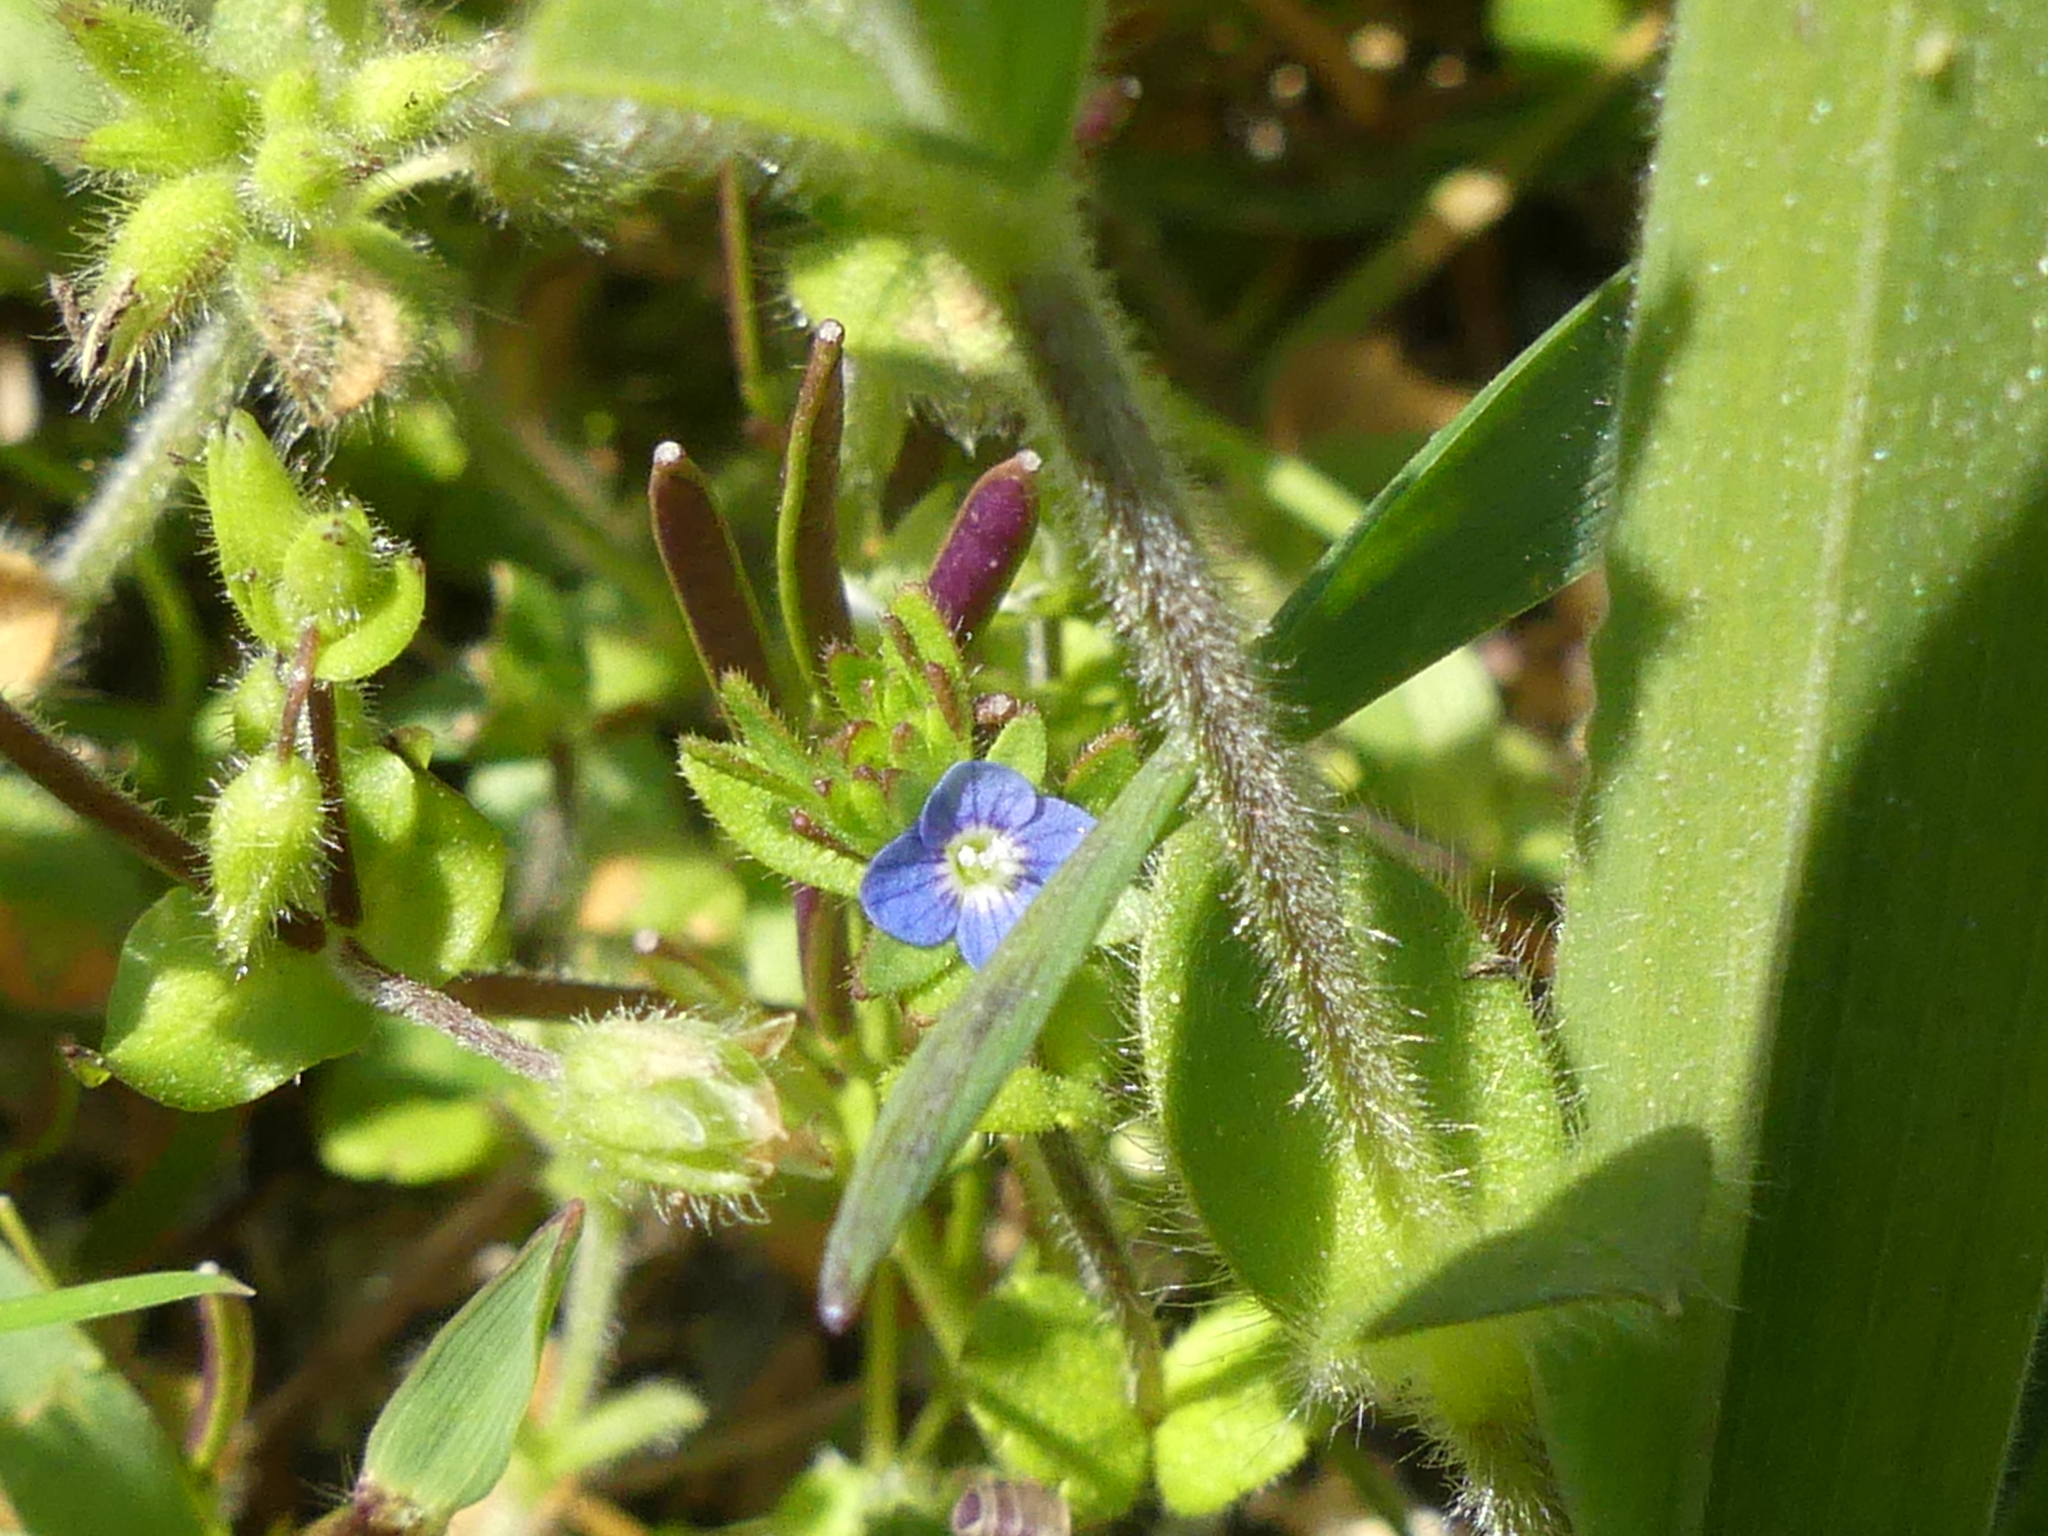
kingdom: Plantae
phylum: Tracheophyta
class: Magnoliopsida
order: Lamiales
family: Plantaginaceae
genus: Veronica
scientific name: Veronica arvensis
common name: Corn speedwell
